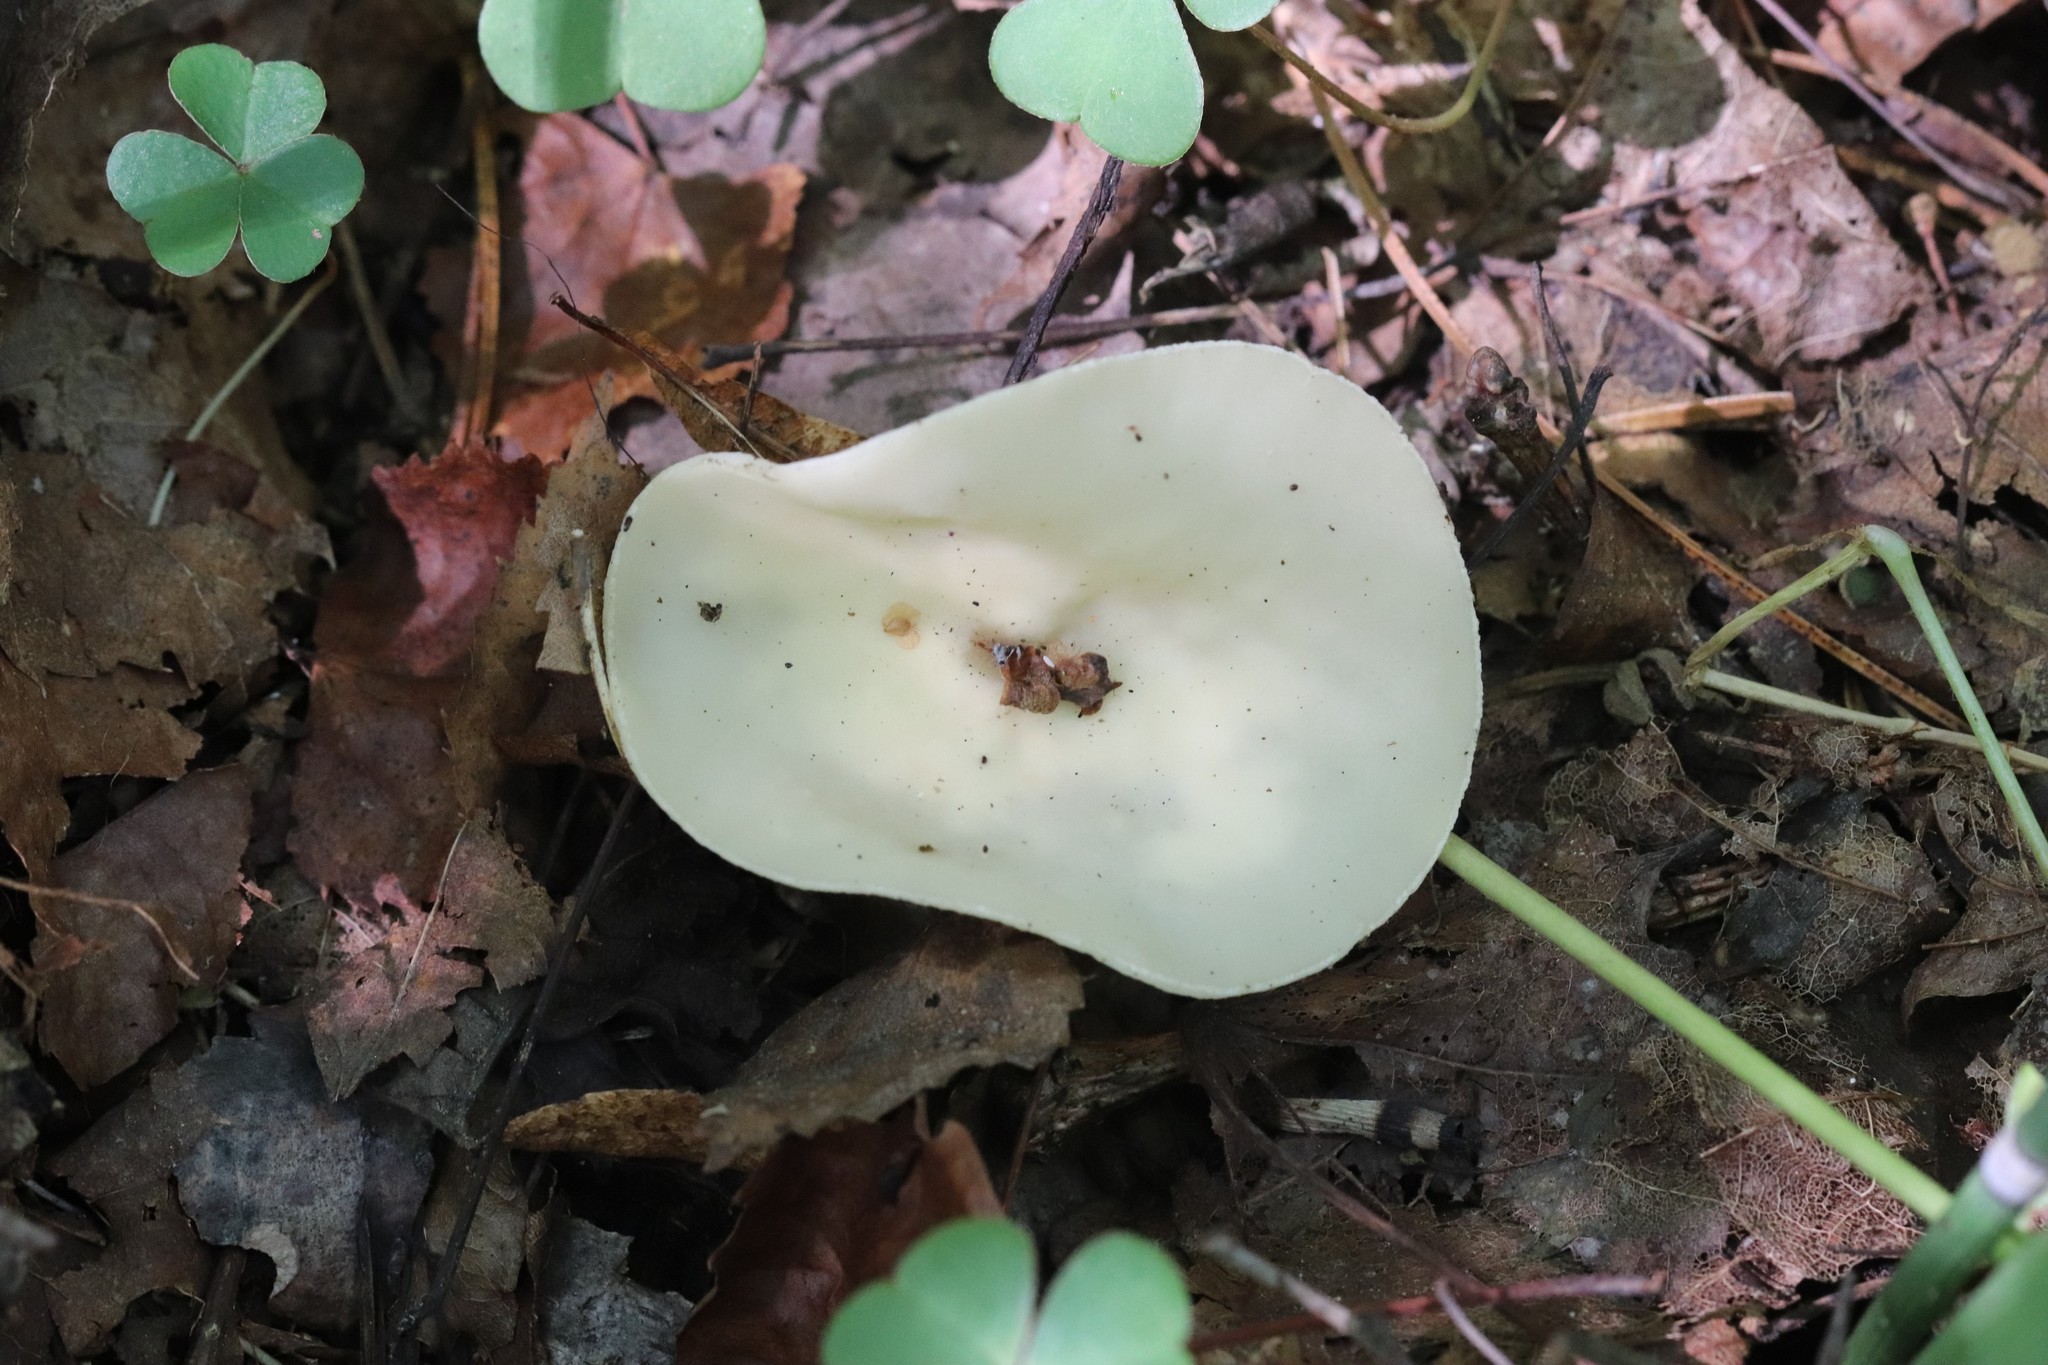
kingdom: Fungi
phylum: Ascomycota
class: Pezizomycetes
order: Pezizales
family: Sarcoscyphaceae
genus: Sarcoscypha
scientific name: Sarcoscypha vassiljevae
